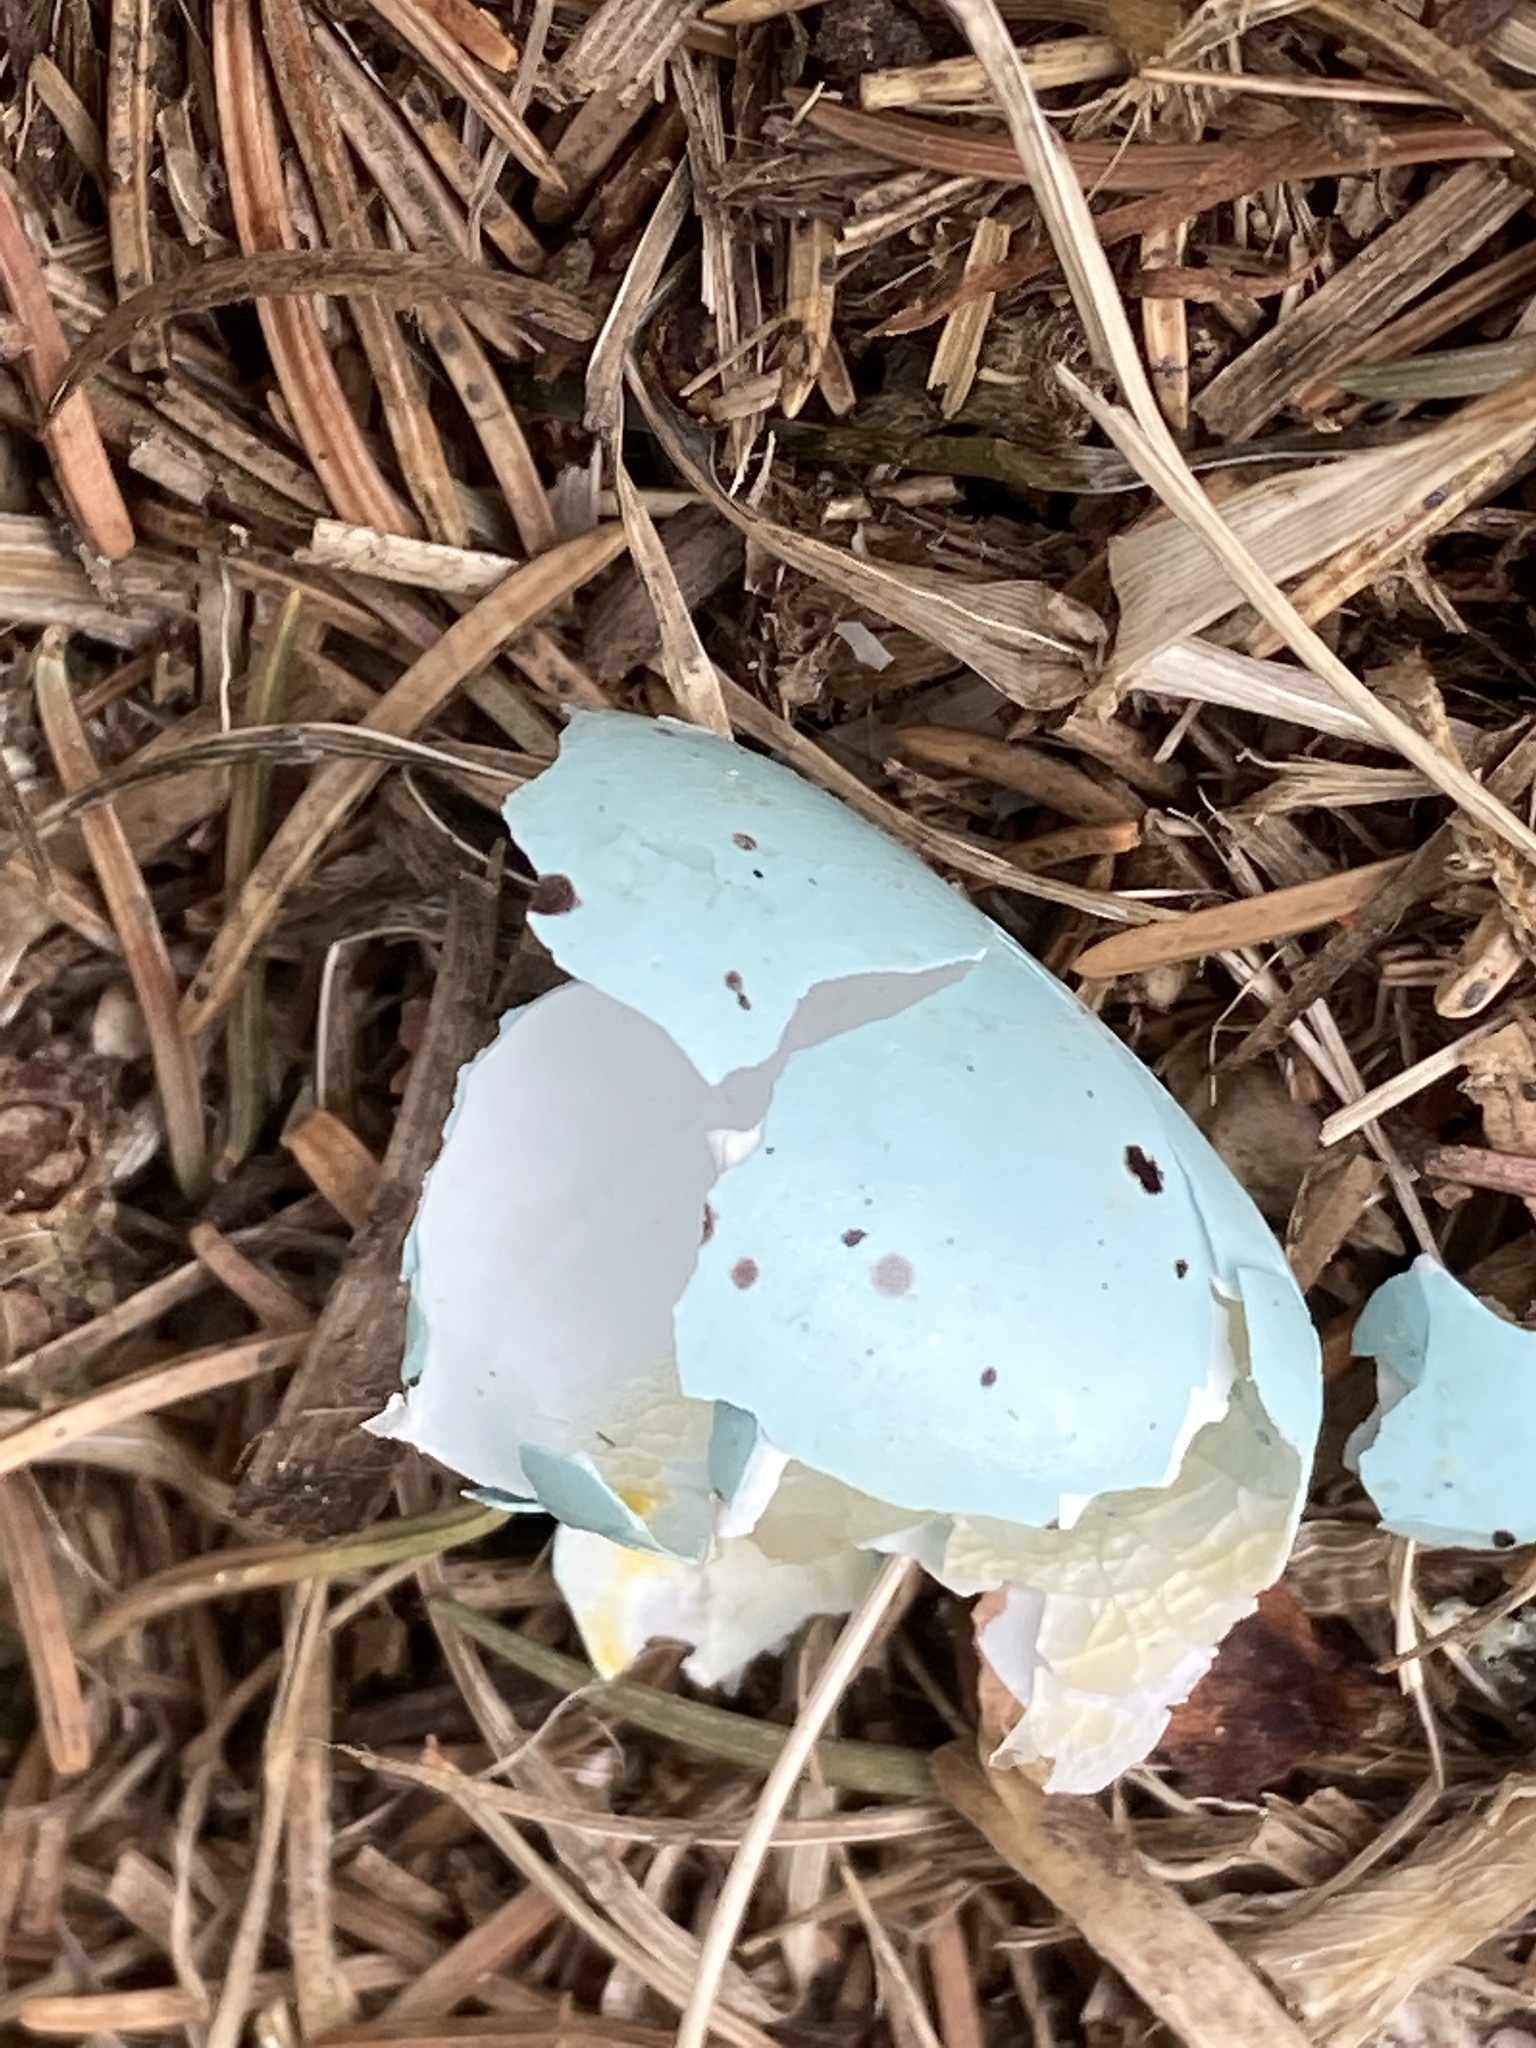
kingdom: Animalia
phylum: Chordata
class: Aves
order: Passeriformes
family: Turdidae
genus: Turdus
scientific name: Turdus philomelos
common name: Song thrush
